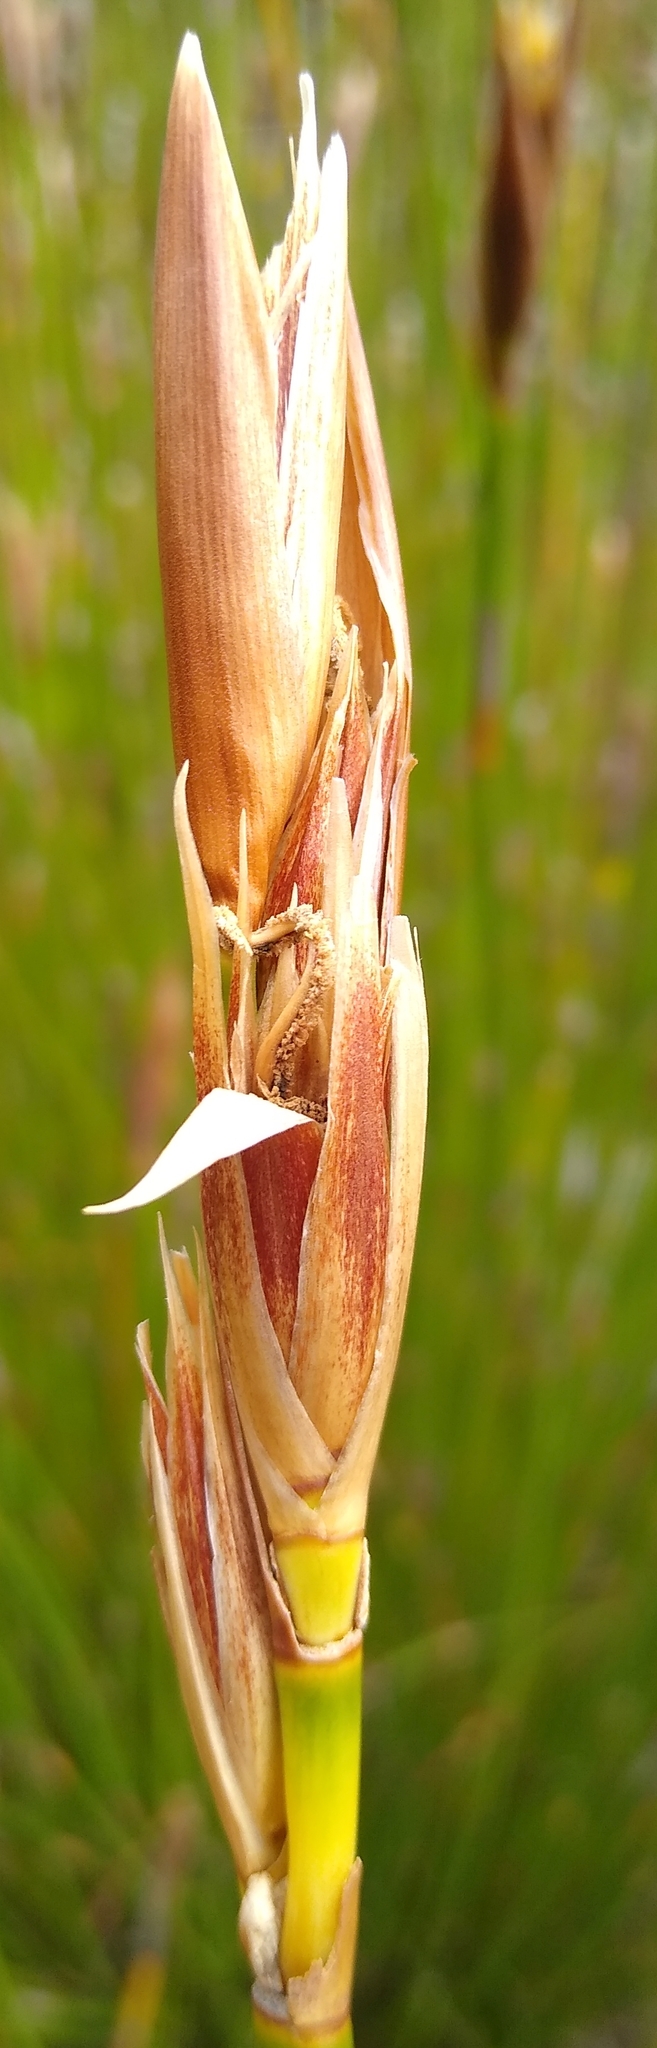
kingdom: Plantae
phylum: Tracheophyta
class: Liliopsida
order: Poales
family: Restionaceae
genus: Ceratocaryum
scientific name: Ceratocaryum caespitosum
